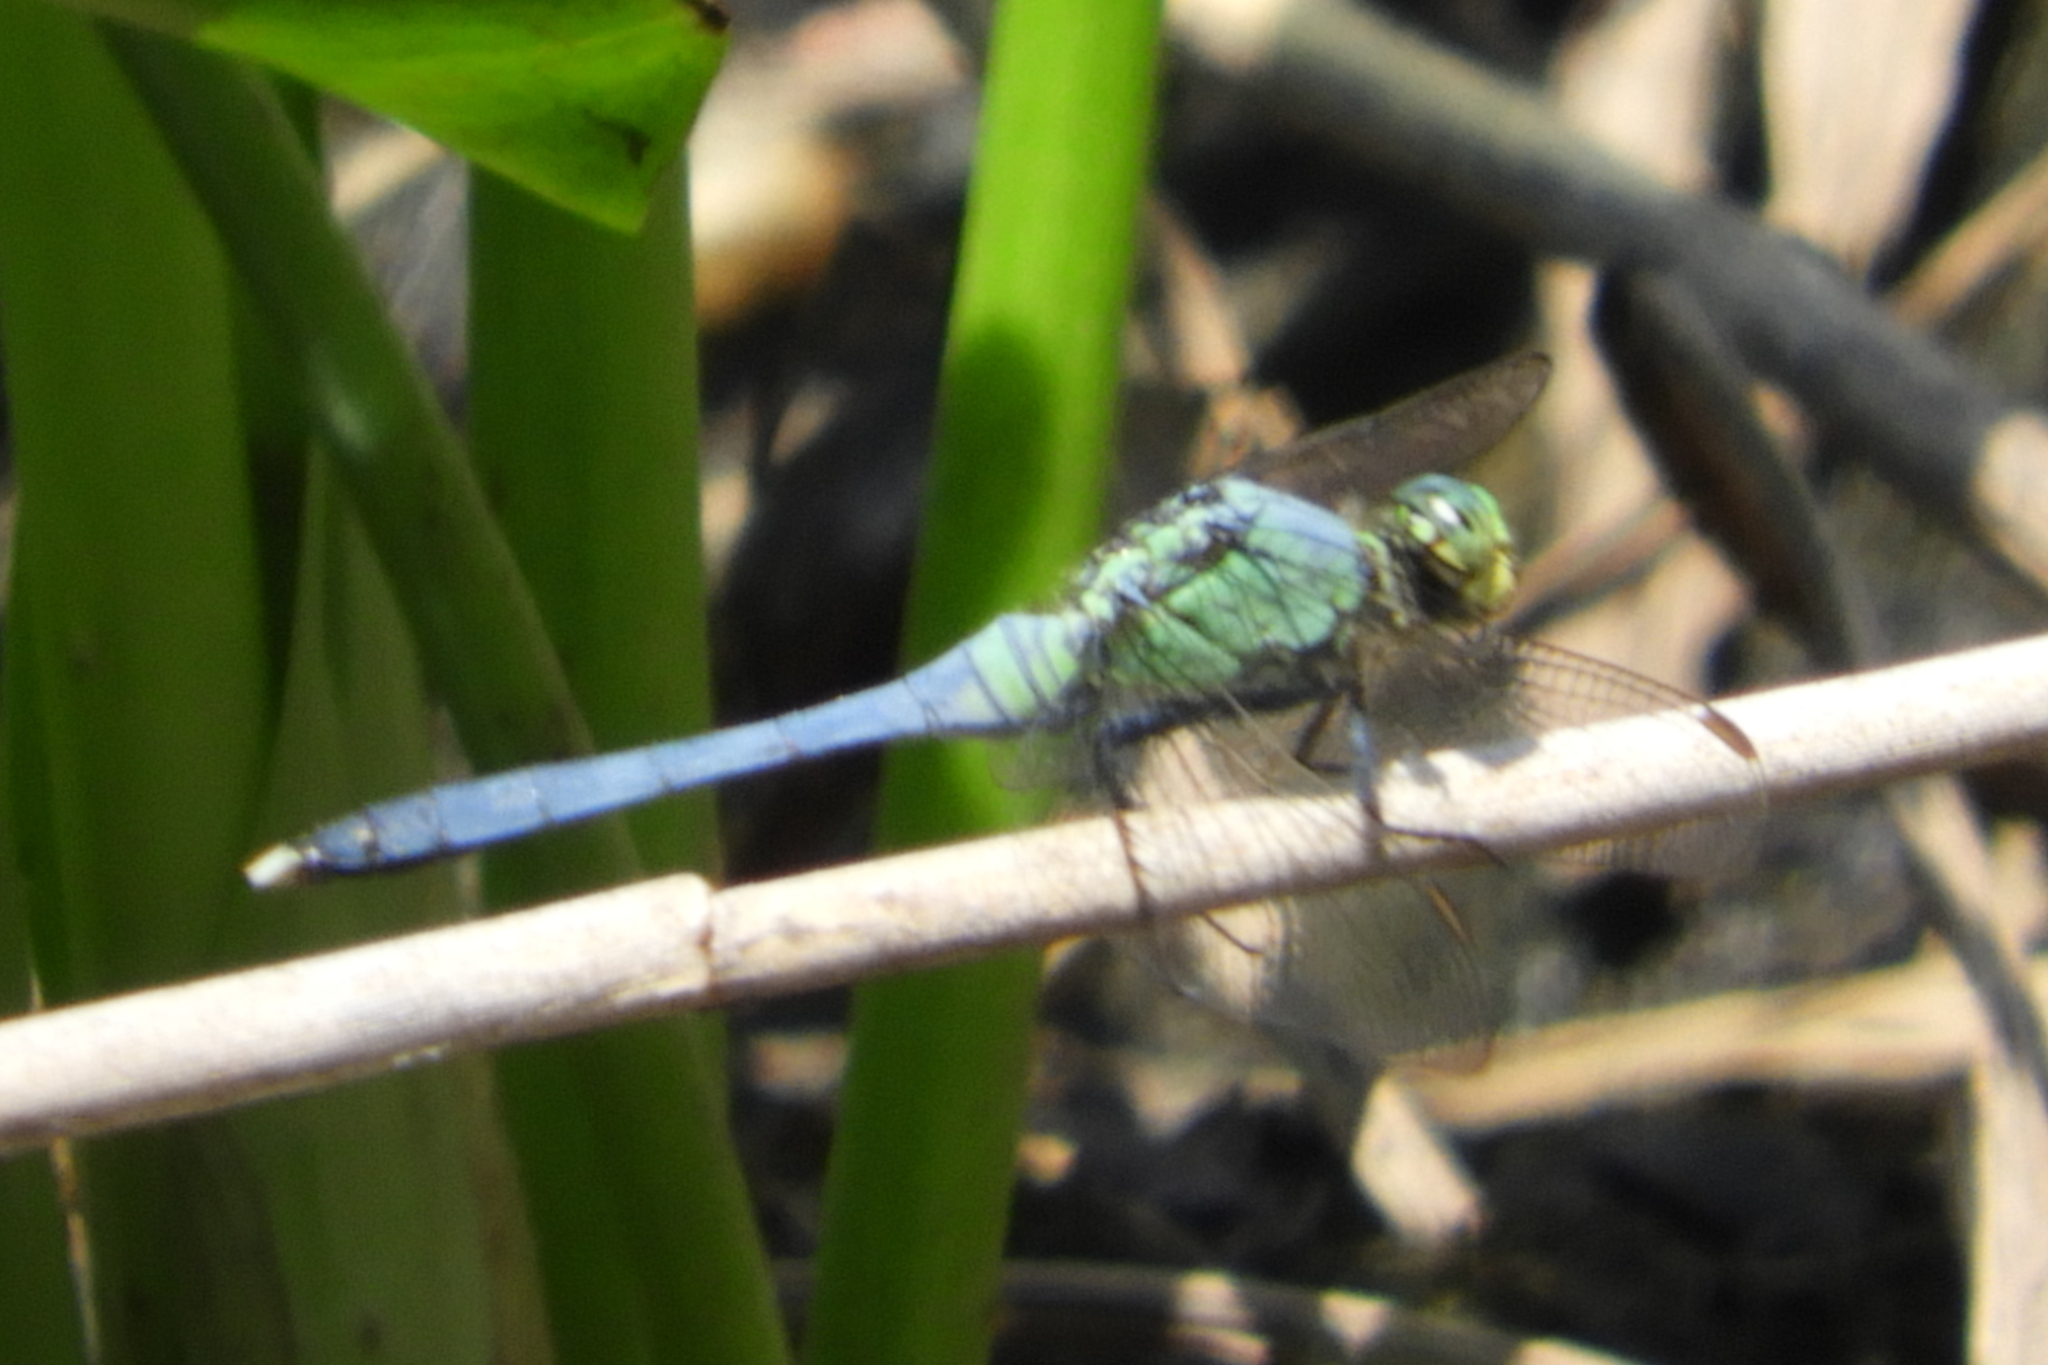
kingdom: Animalia
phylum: Arthropoda
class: Insecta
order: Odonata
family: Libellulidae
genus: Erythemis
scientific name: Erythemis simplicicollis
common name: Eastern pondhawk
